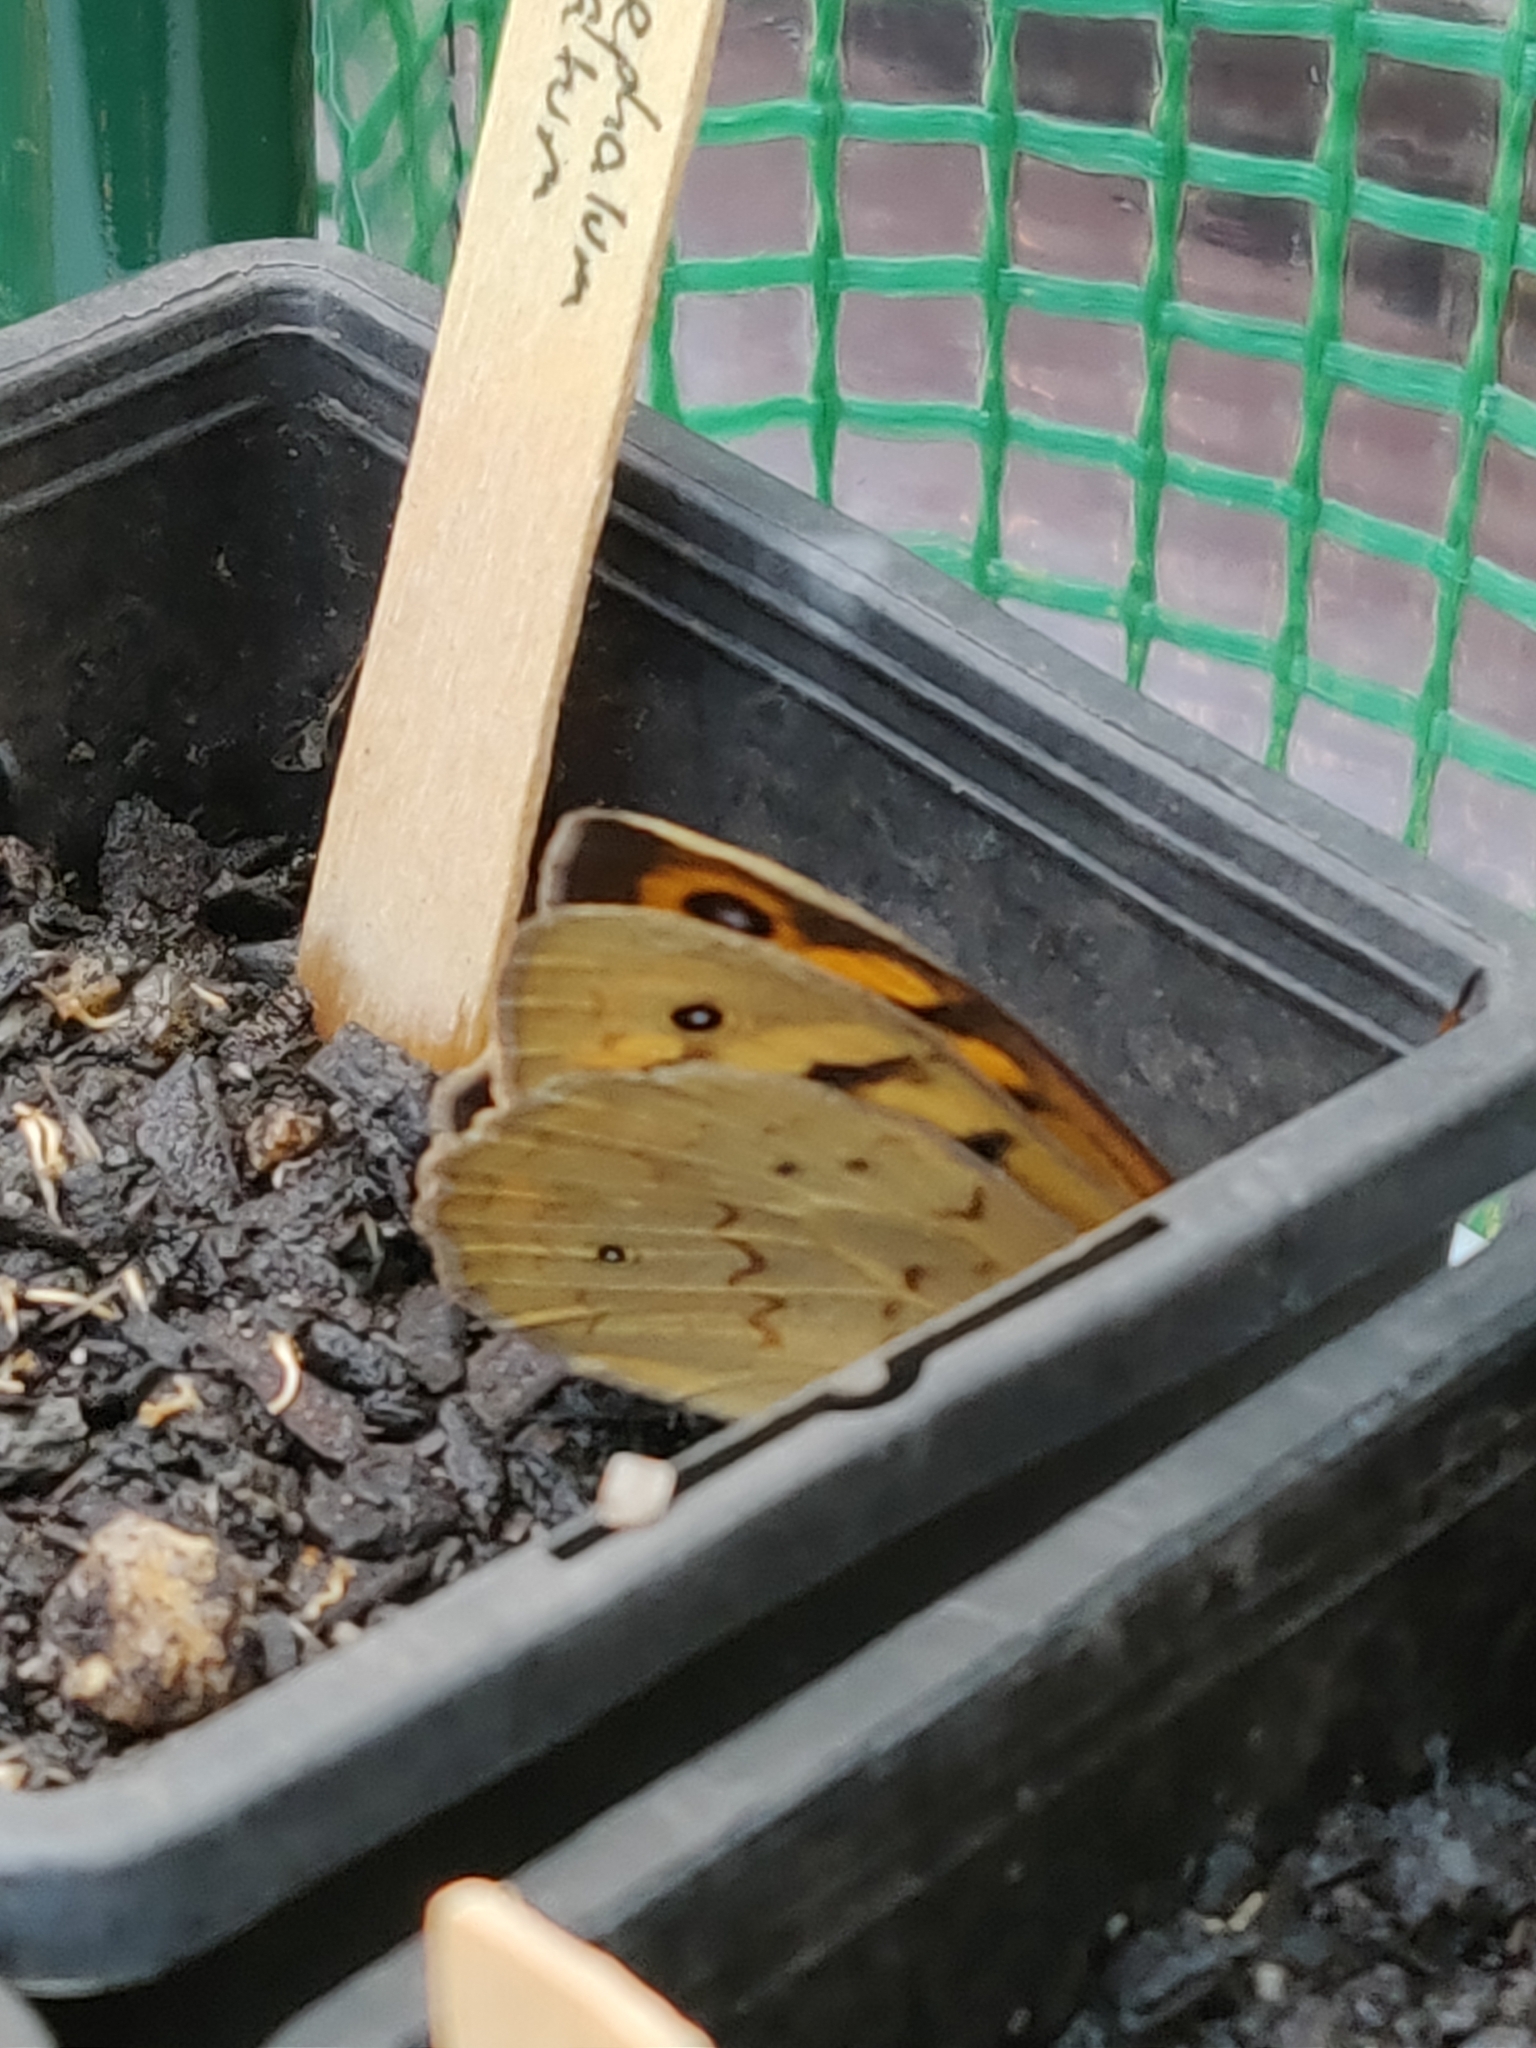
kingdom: Animalia
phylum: Arthropoda
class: Insecta
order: Lepidoptera
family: Nymphalidae
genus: Heteronympha
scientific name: Heteronympha merope
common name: Common brown
